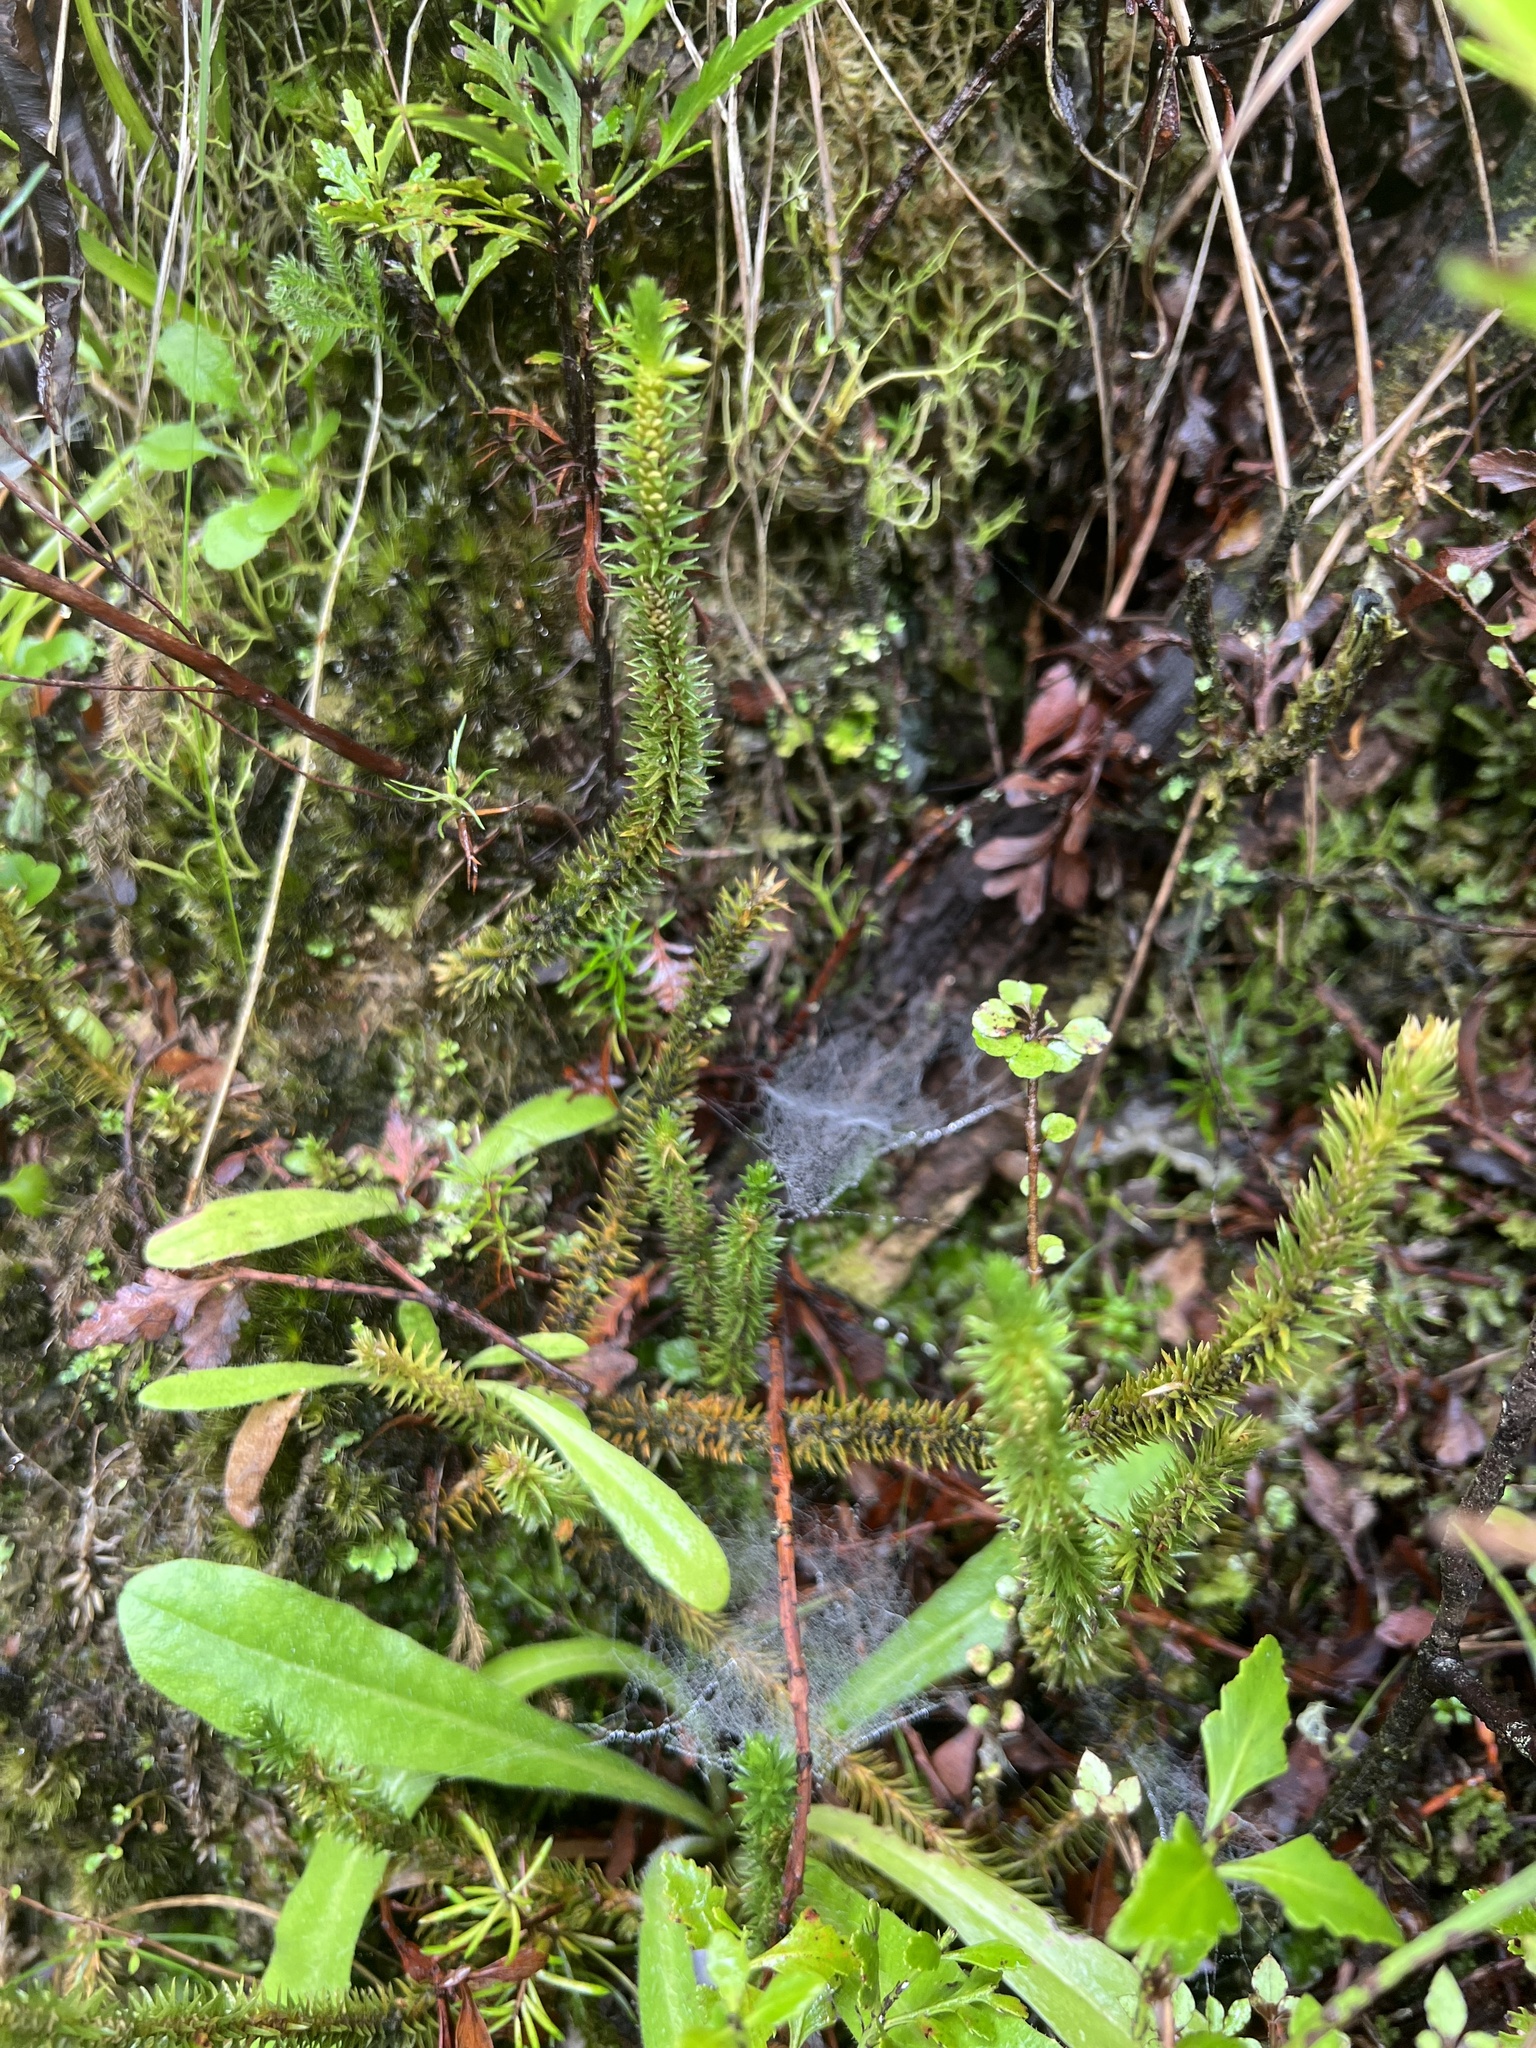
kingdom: Plantae
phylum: Tracheophyta
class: Lycopodiopsida
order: Lycopodiales
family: Lycopodiaceae
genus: Huperzia
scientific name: Huperzia australiana
